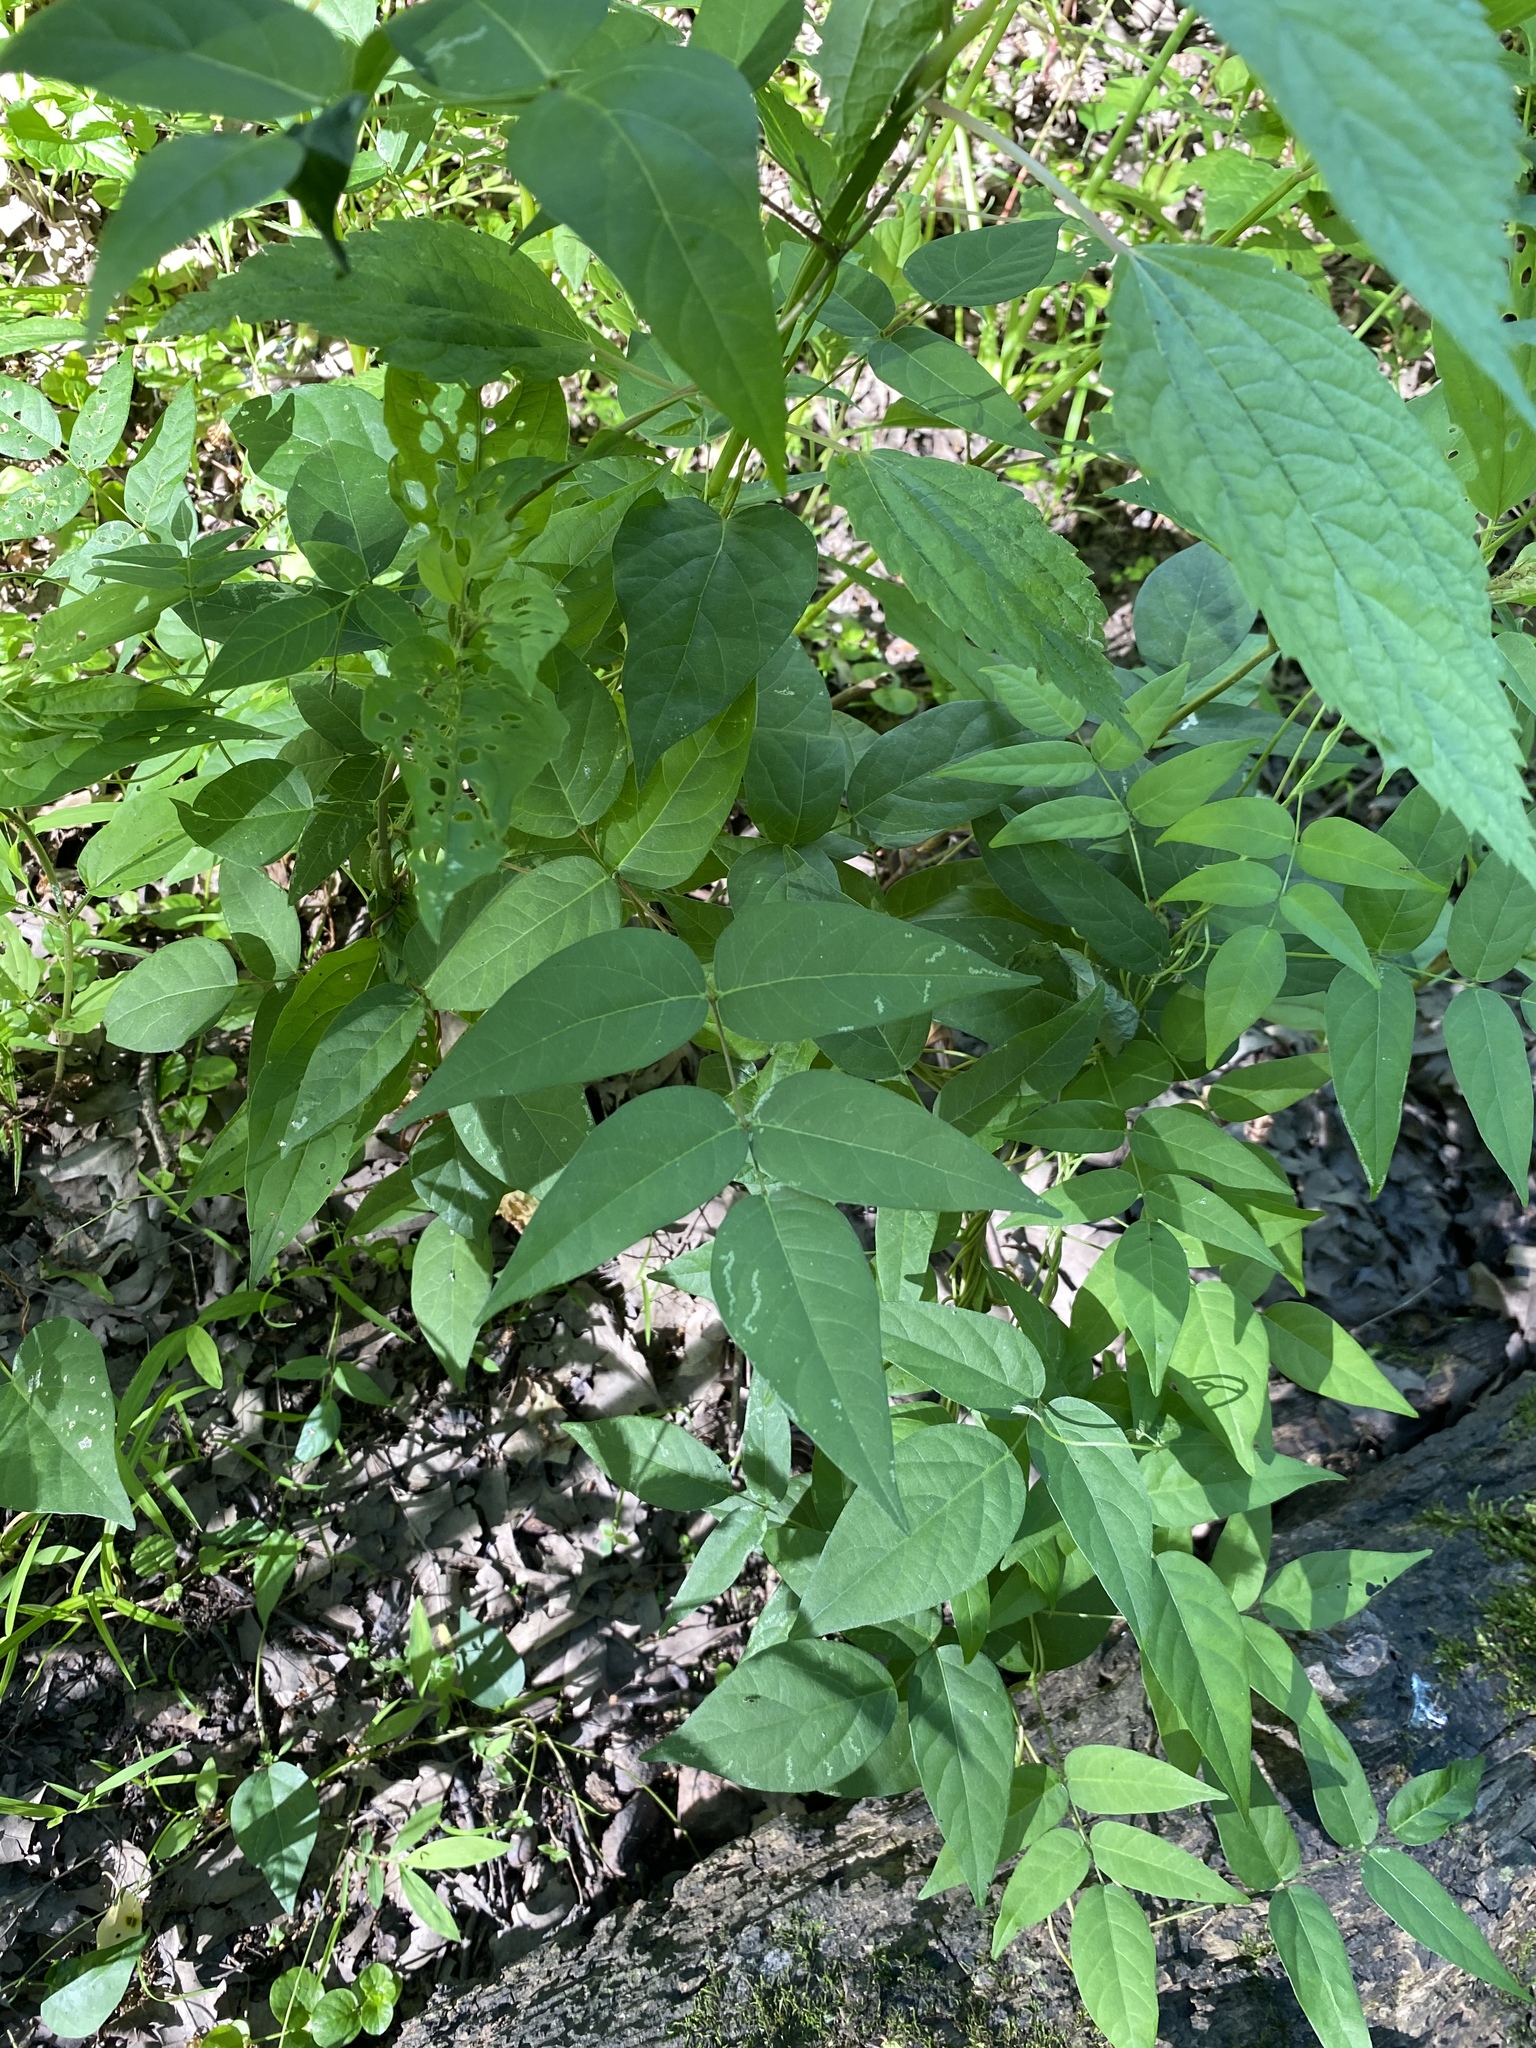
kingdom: Plantae
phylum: Tracheophyta
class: Magnoliopsida
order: Fabales
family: Fabaceae
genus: Apios
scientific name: Apios americana
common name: American potato-bean
